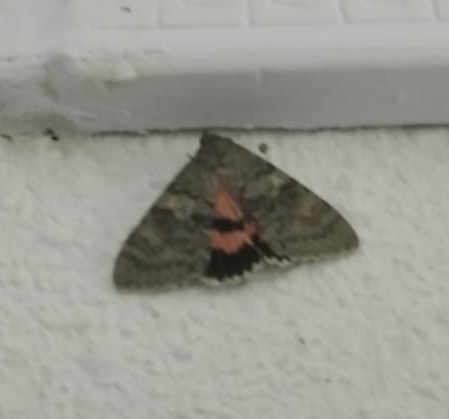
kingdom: Animalia
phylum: Arthropoda
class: Insecta
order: Lepidoptera
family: Erebidae
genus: Catocala
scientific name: Catocala elocata
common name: French red underwing
